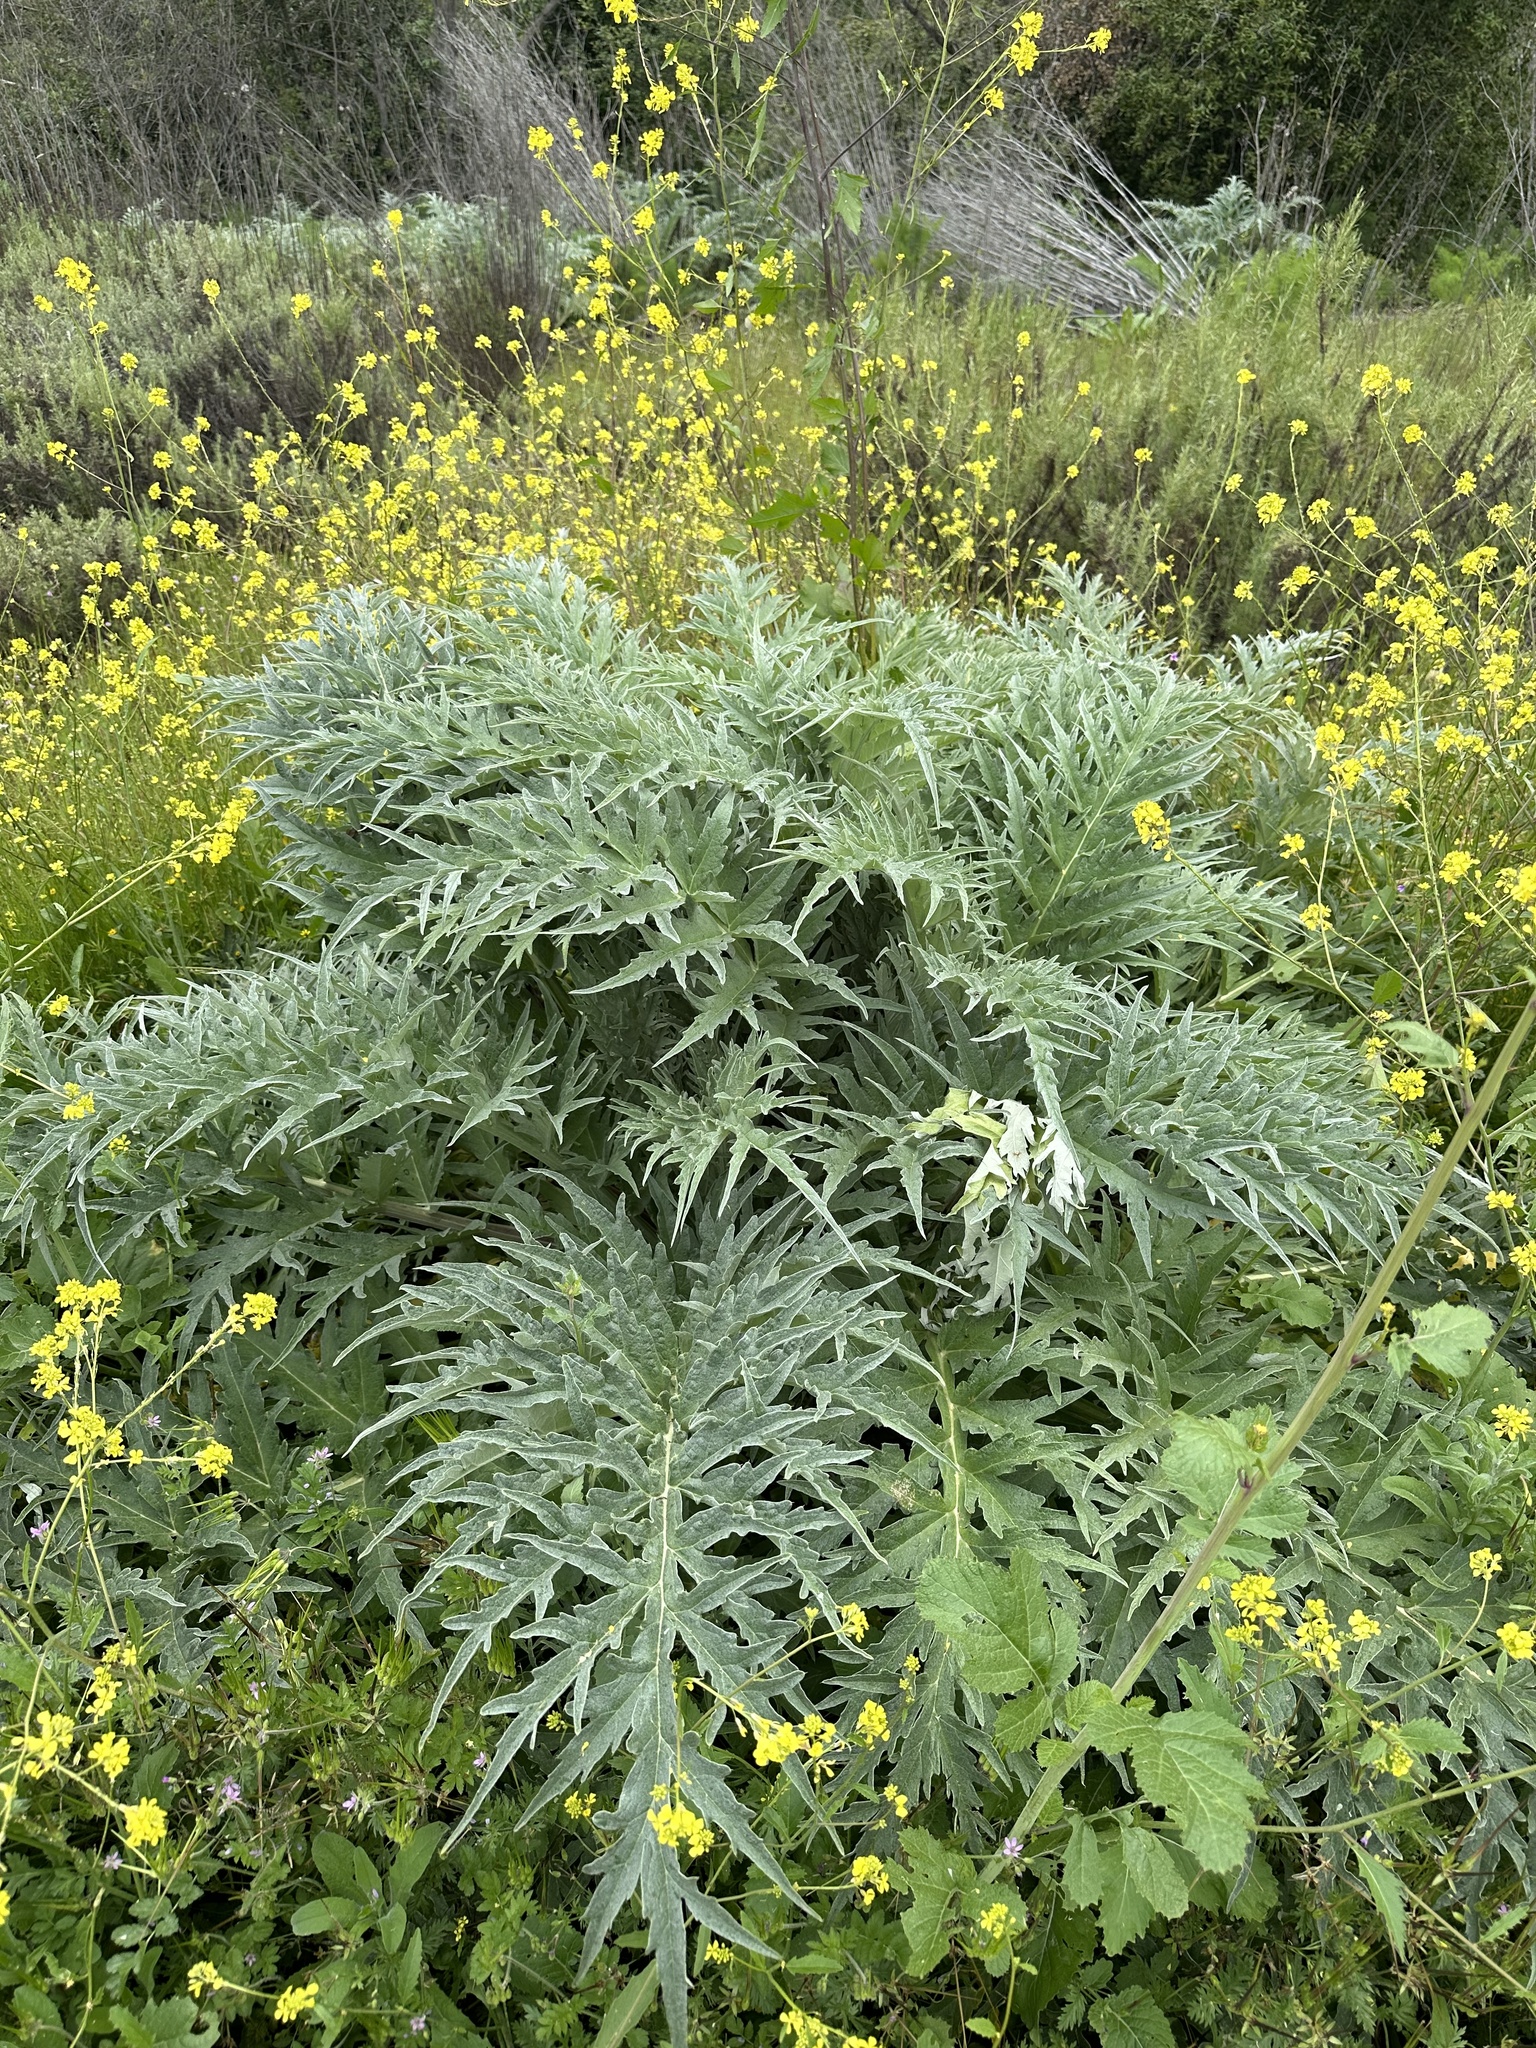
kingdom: Plantae
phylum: Tracheophyta
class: Magnoliopsida
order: Asterales
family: Asteraceae
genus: Cynara
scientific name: Cynara cardunculus
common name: Globe artichoke
